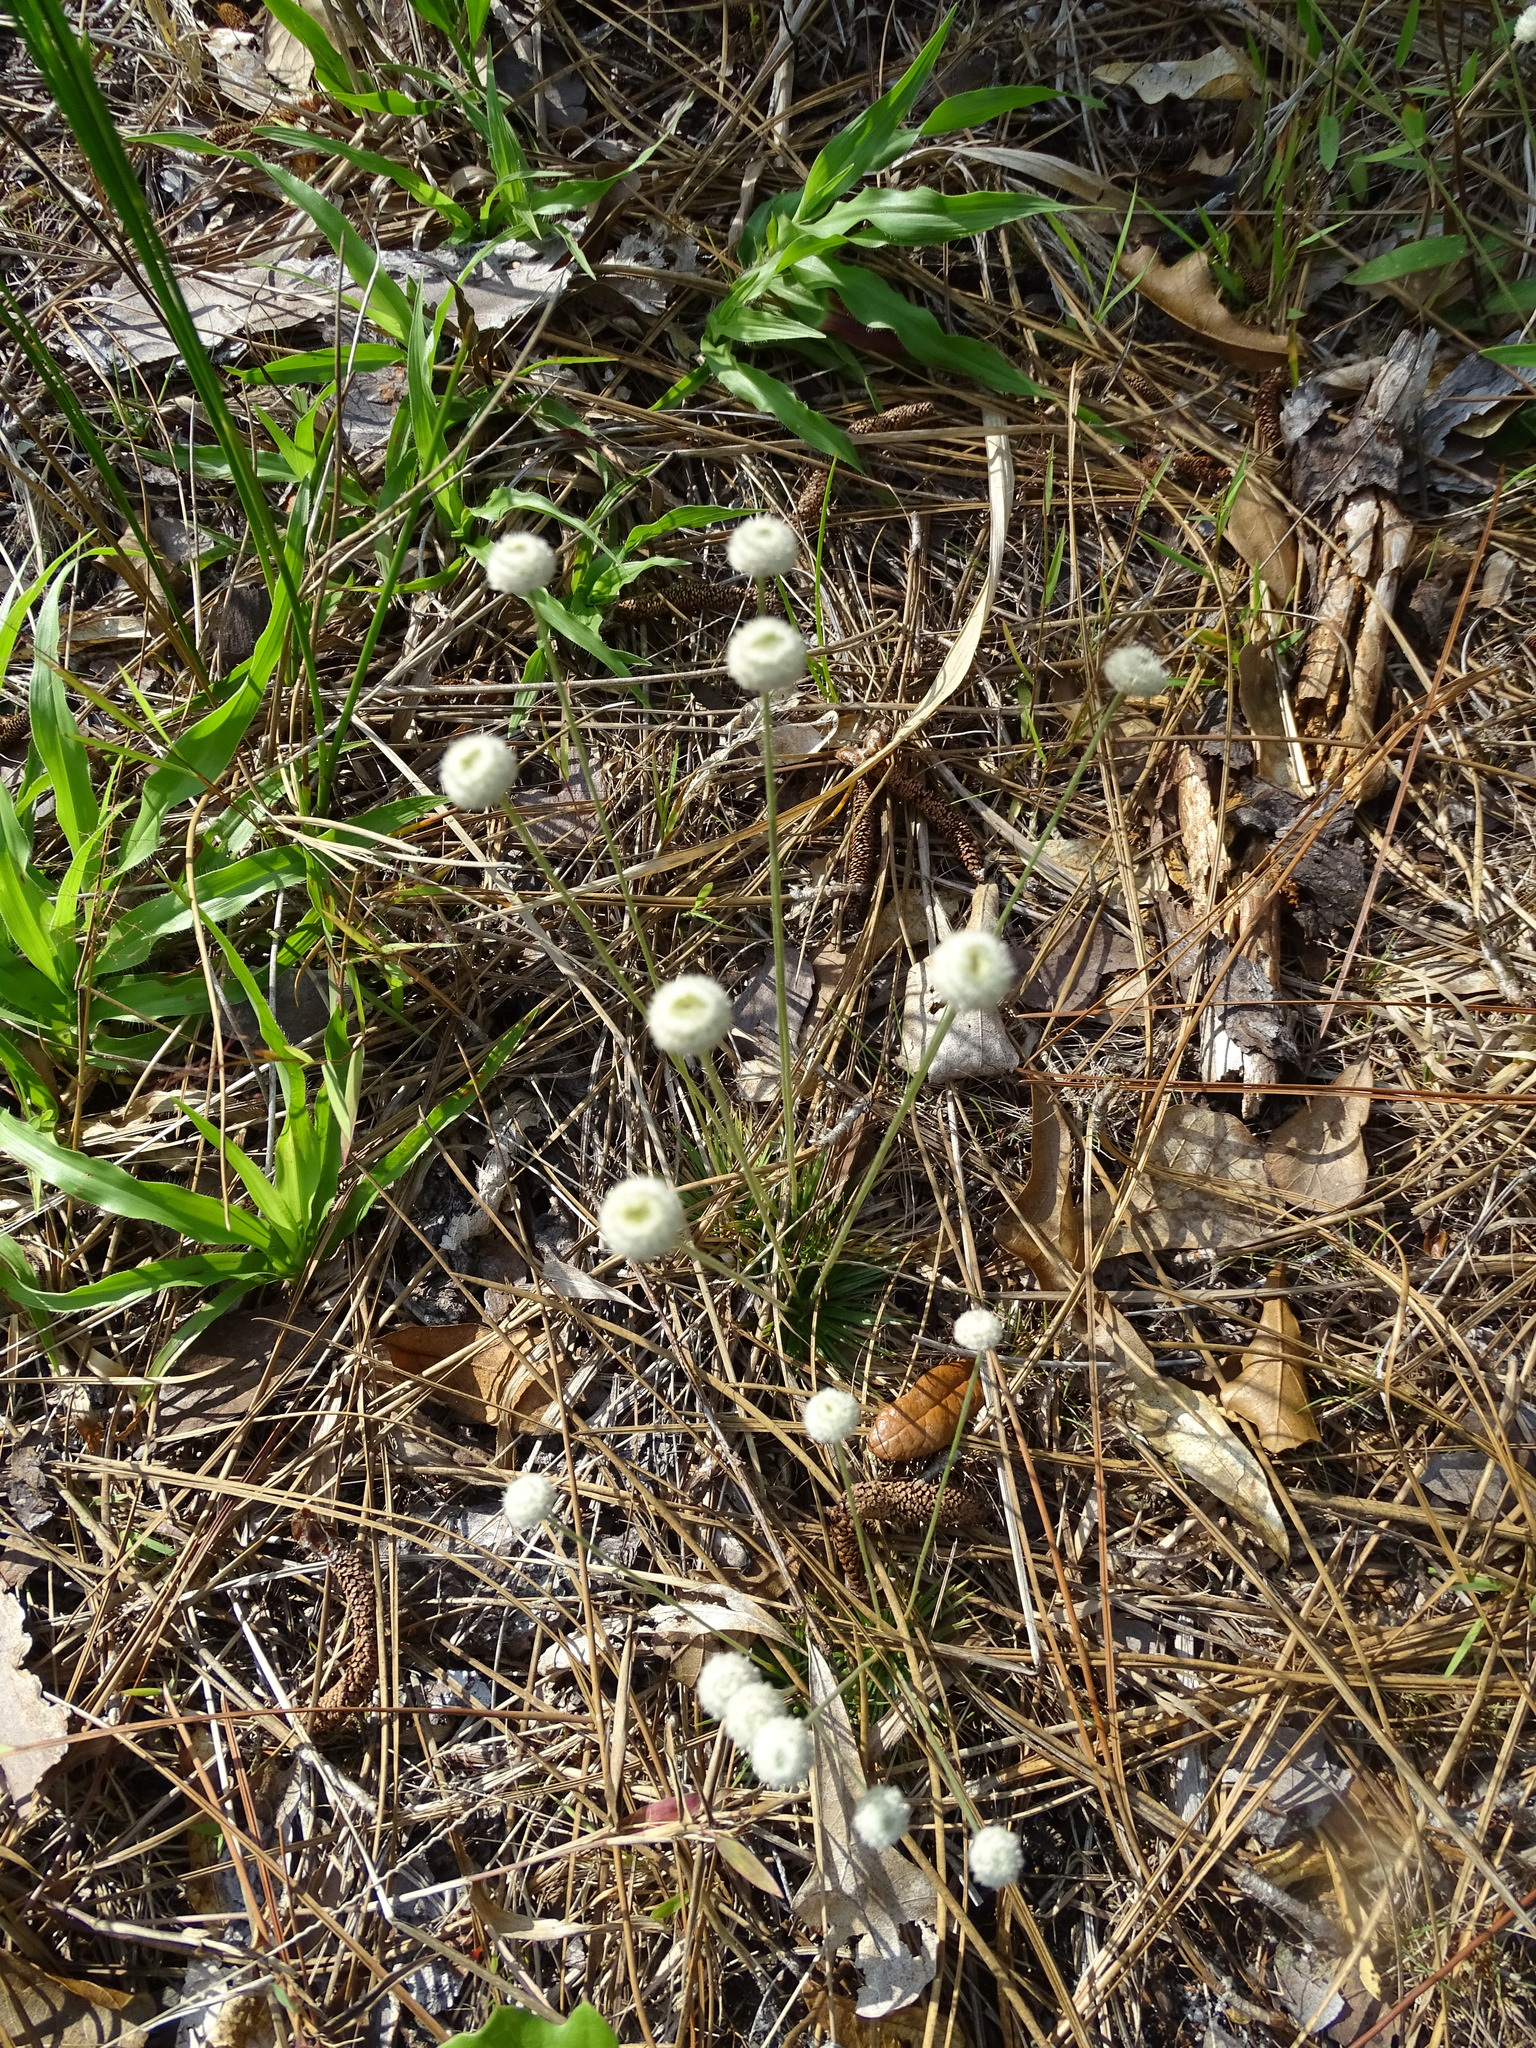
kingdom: Plantae
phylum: Tracheophyta
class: Liliopsida
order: Poales
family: Eriocaulaceae
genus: Syngonanthus
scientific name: Syngonanthus flavidulus
